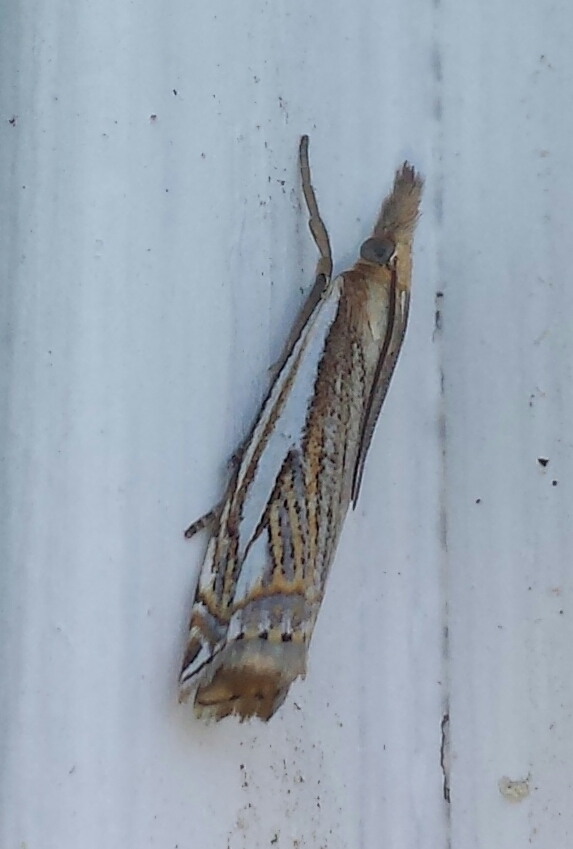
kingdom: Animalia
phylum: Arthropoda
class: Insecta
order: Lepidoptera
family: Crambidae
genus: Crambus
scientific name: Crambus saltuellus
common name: Pasture grass-veneer
